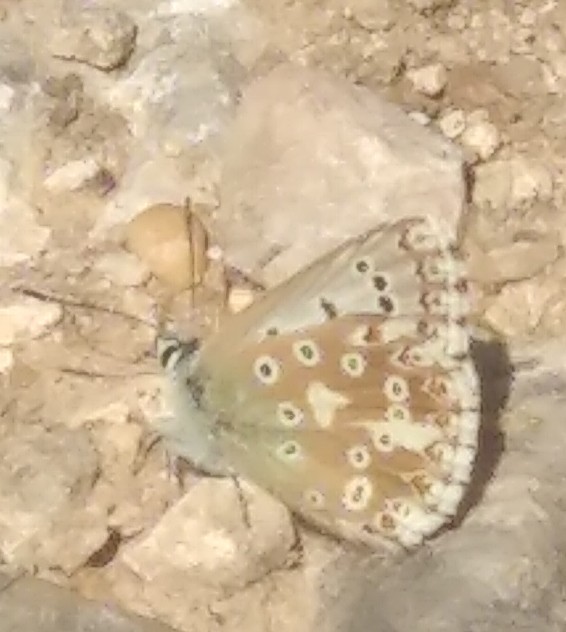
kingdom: Animalia
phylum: Arthropoda
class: Insecta
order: Lepidoptera
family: Lycaenidae
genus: Lysandra
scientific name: Lysandra coridon
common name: Chalkhill blue
